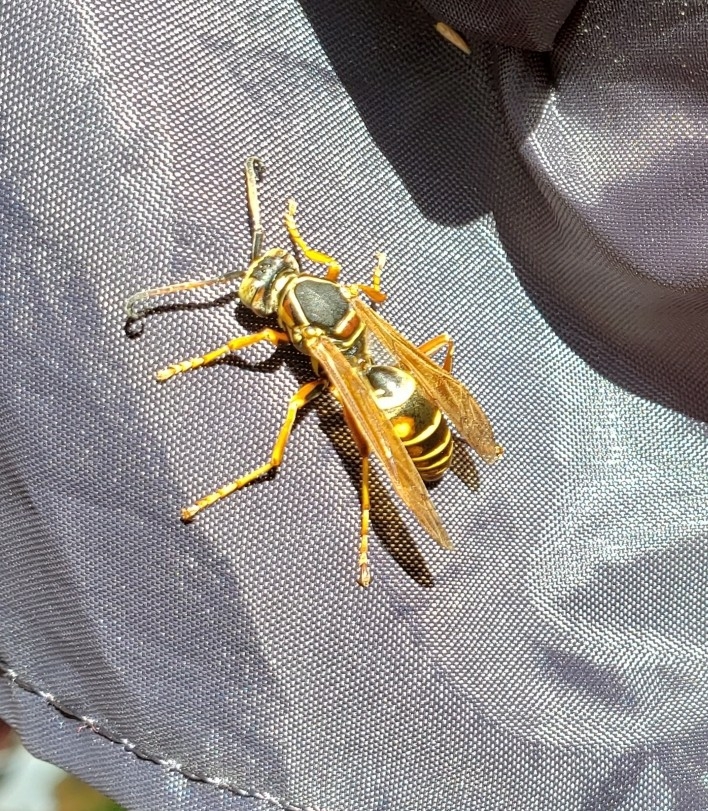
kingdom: Animalia
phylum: Arthropoda
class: Insecta
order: Hymenoptera
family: Eumenidae
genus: Polistes
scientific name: Polistes fuscatus
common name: Dark paper wasp
